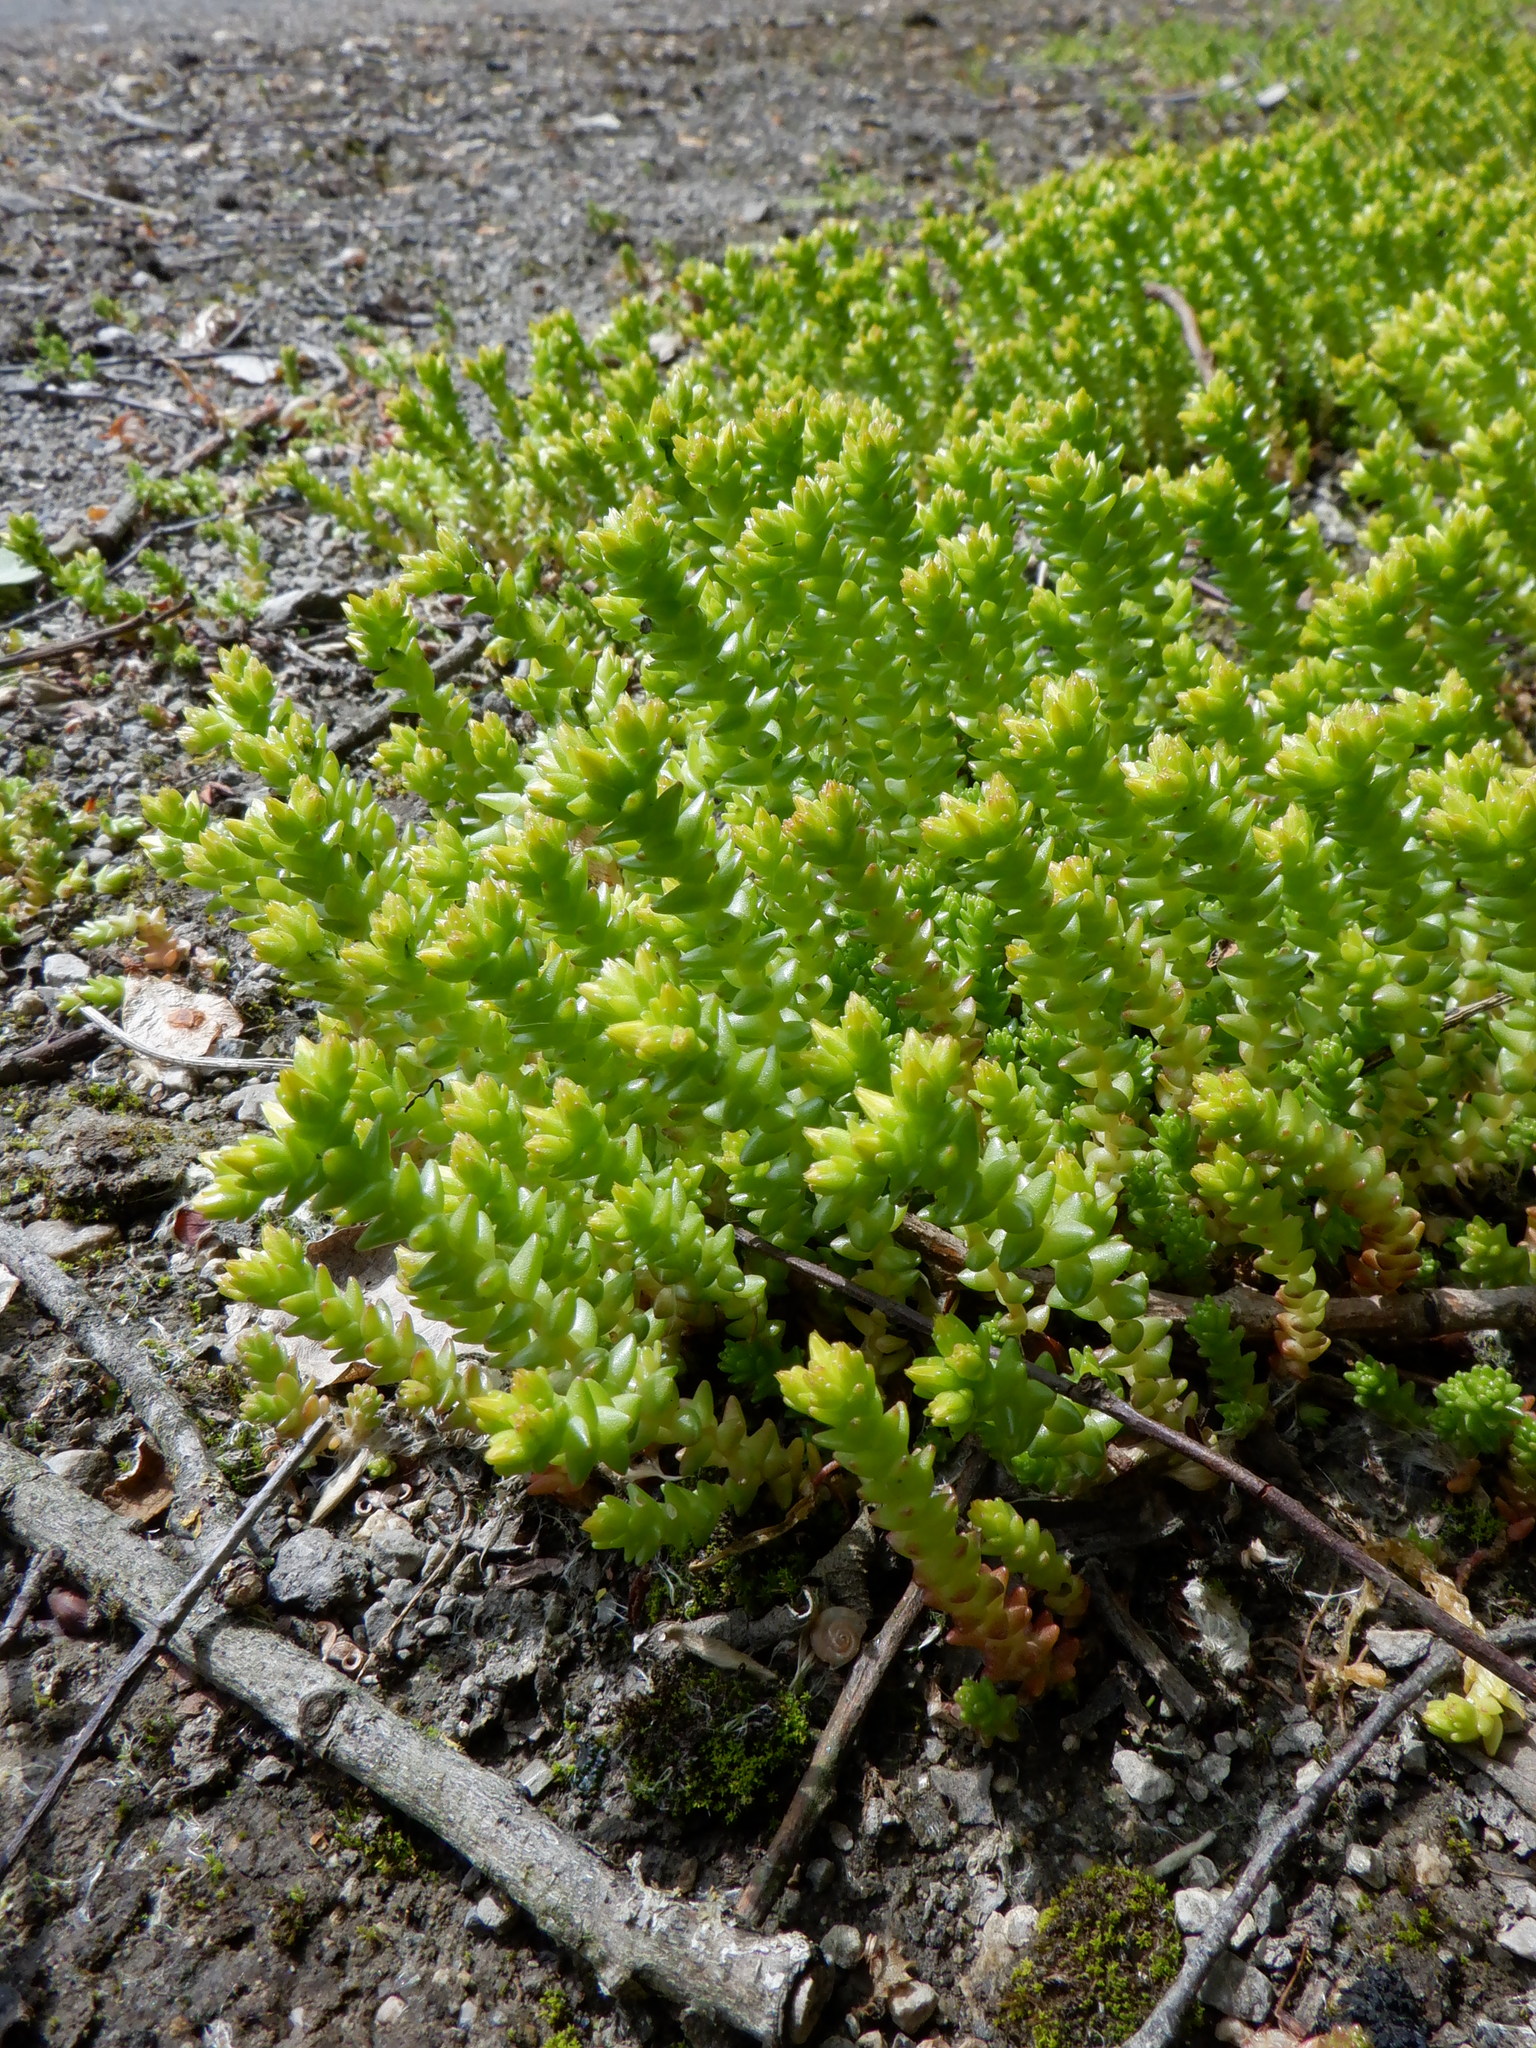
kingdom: Plantae
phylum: Tracheophyta
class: Magnoliopsida
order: Saxifragales
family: Crassulaceae
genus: Sedum
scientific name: Sedum acre
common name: Biting stonecrop
